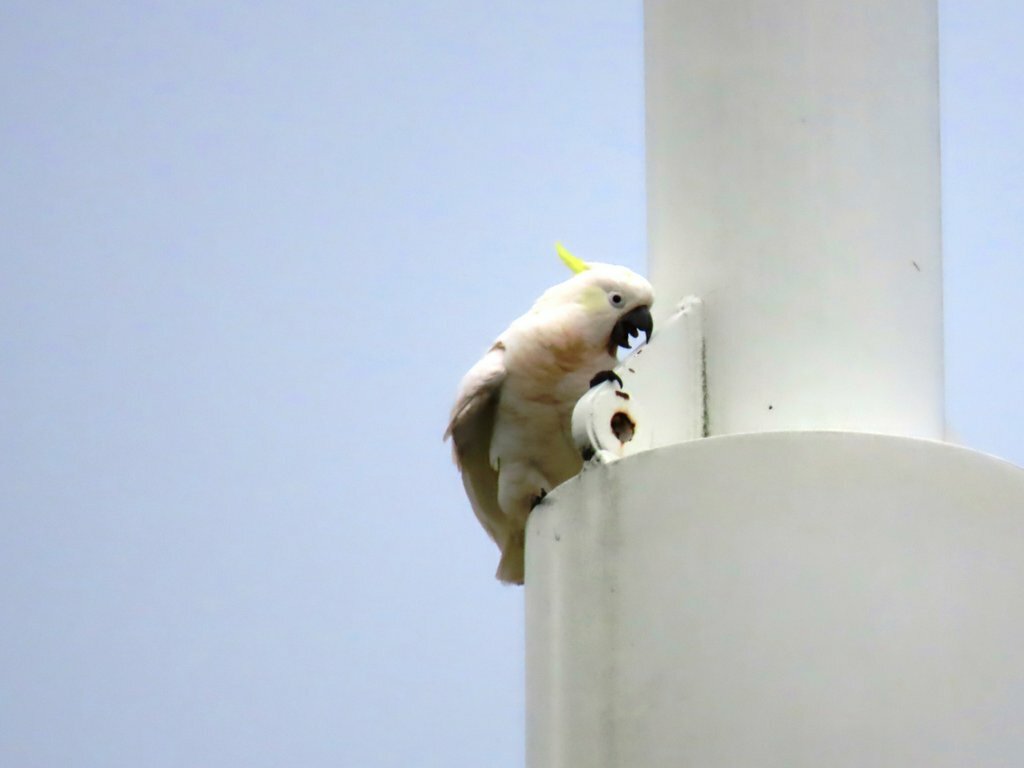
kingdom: Animalia
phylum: Chordata
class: Aves
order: Psittaciformes
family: Psittacidae
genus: Cacatua
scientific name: Cacatua galerita
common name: Sulphur-crested cockatoo
